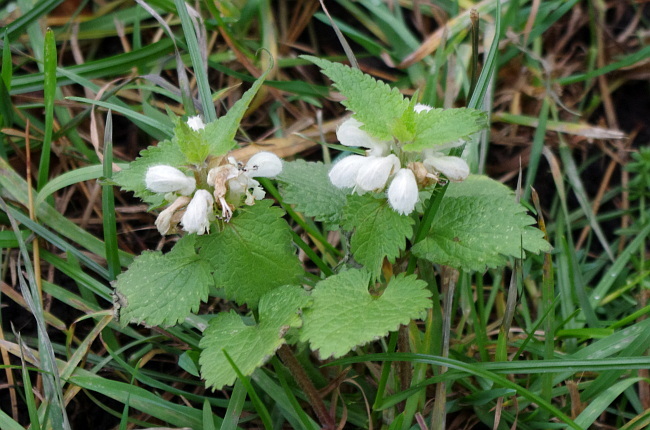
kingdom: Plantae
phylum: Tracheophyta
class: Magnoliopsida
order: Lamiales
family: Lamiaceae
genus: Lamium
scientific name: Lamium album
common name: White dead-nettle
